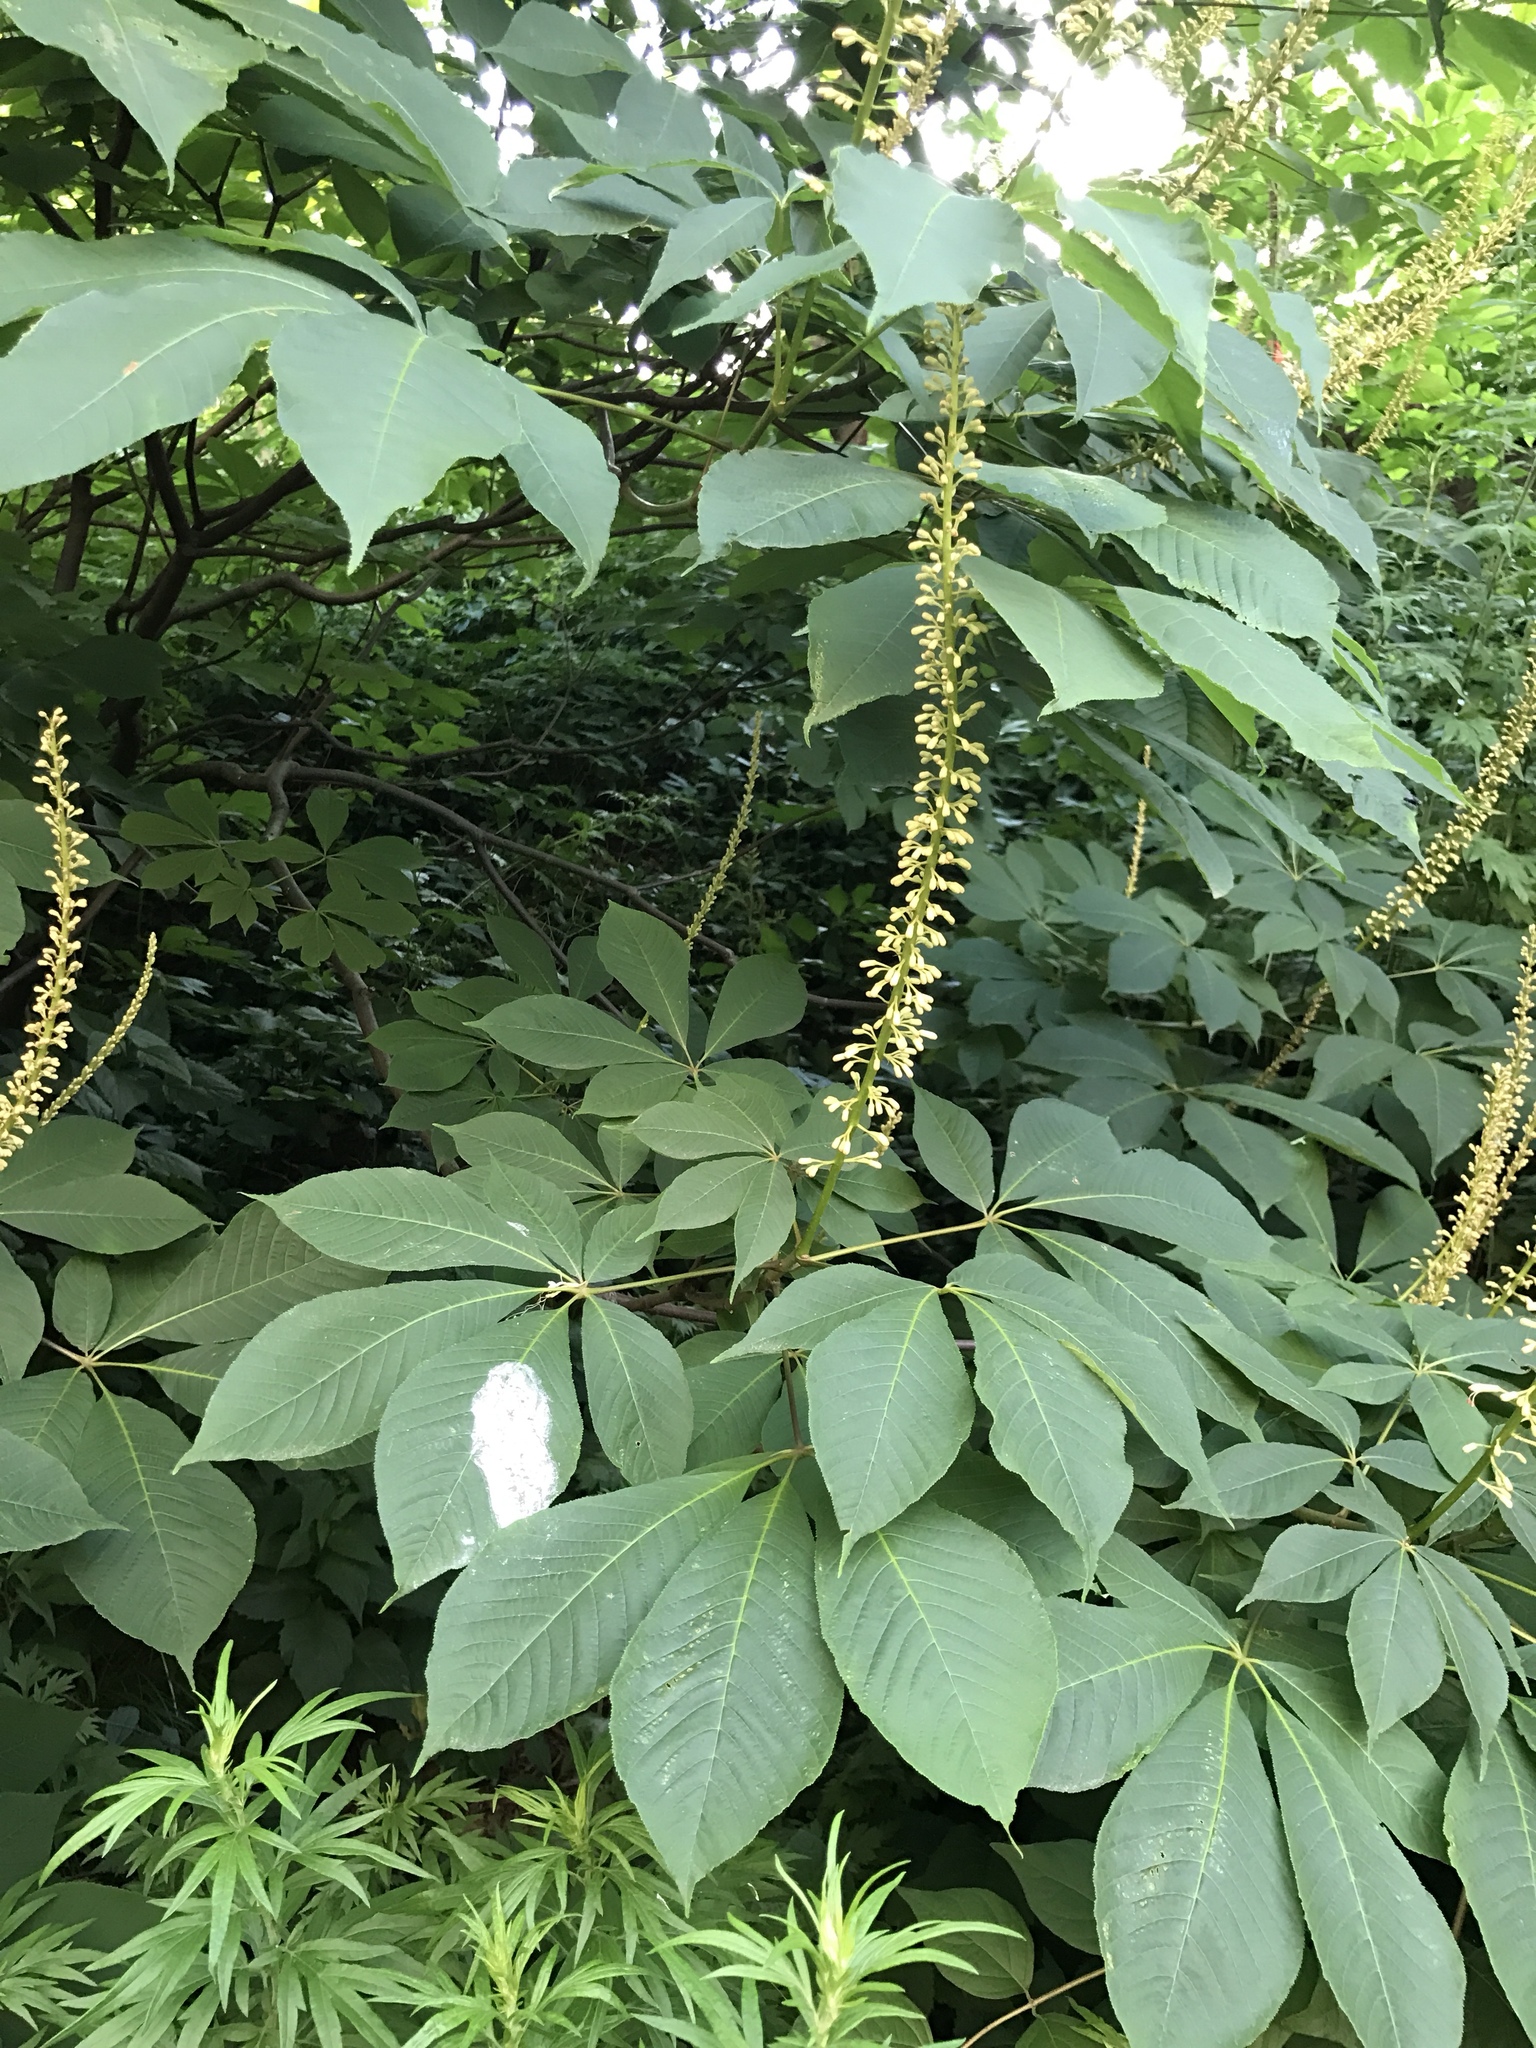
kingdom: Plantae
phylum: Tracheophyta
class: Magnoliopsida
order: Sapindales
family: Sapindaceae
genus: Aesculus
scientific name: Aesculus parviflora
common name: Bottlebrush buckeye
